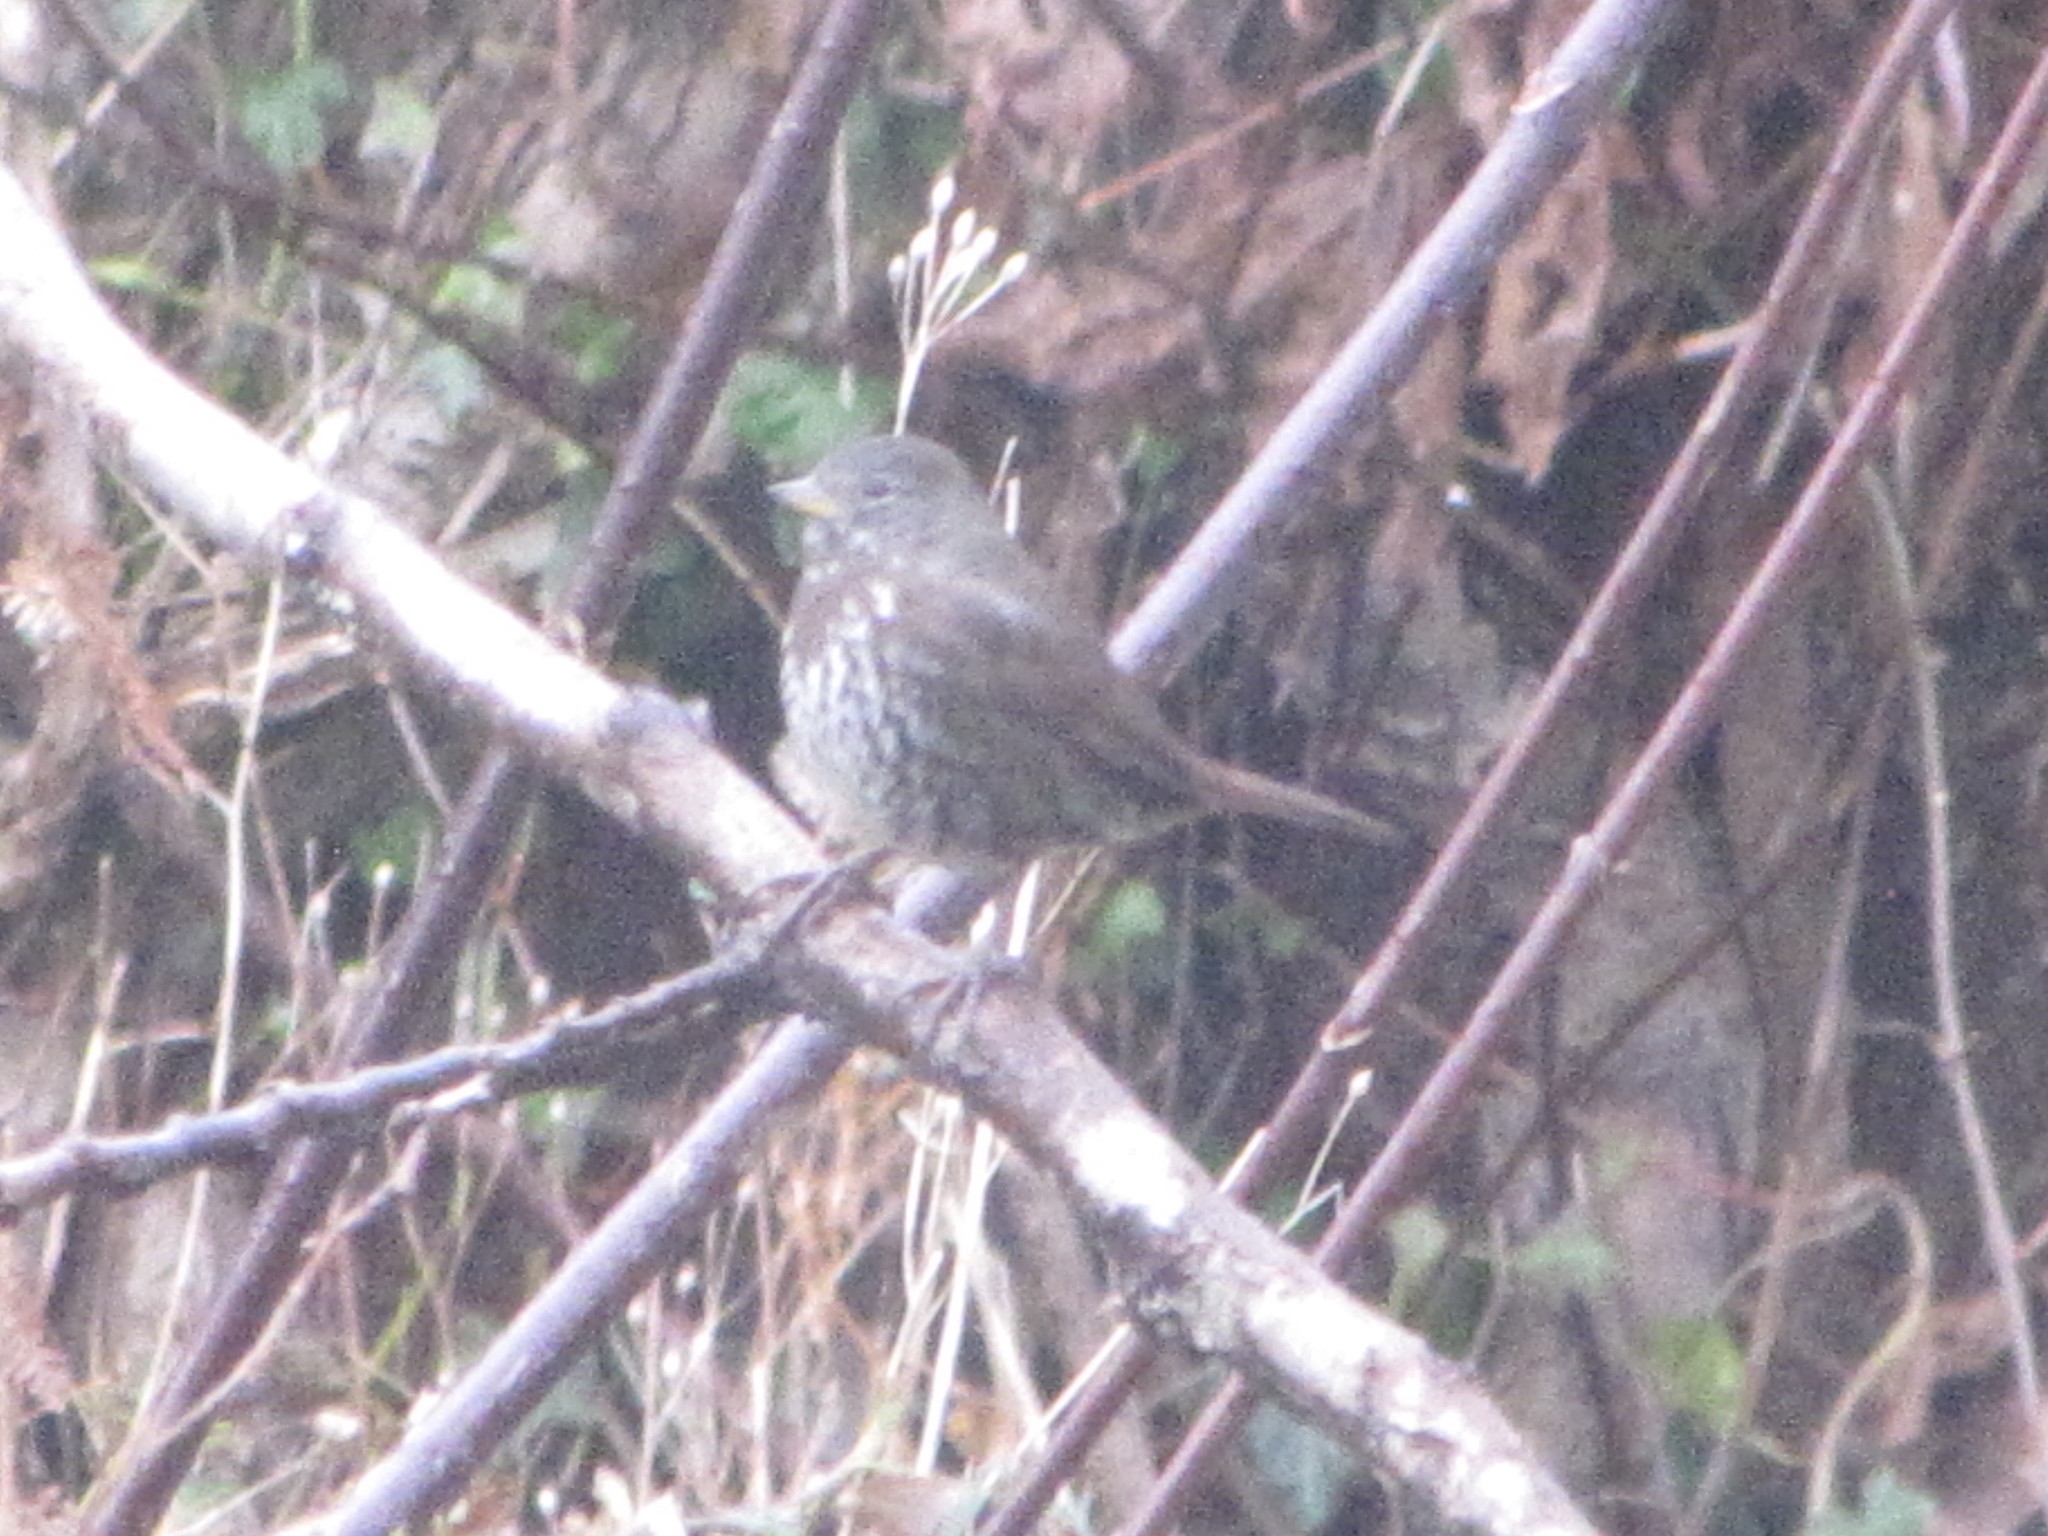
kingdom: Animalia
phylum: Chordata
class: Aves
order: Passeriformes
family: Passerellidae
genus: Passerella
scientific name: Passerella iliaca
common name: Fox sparrow
